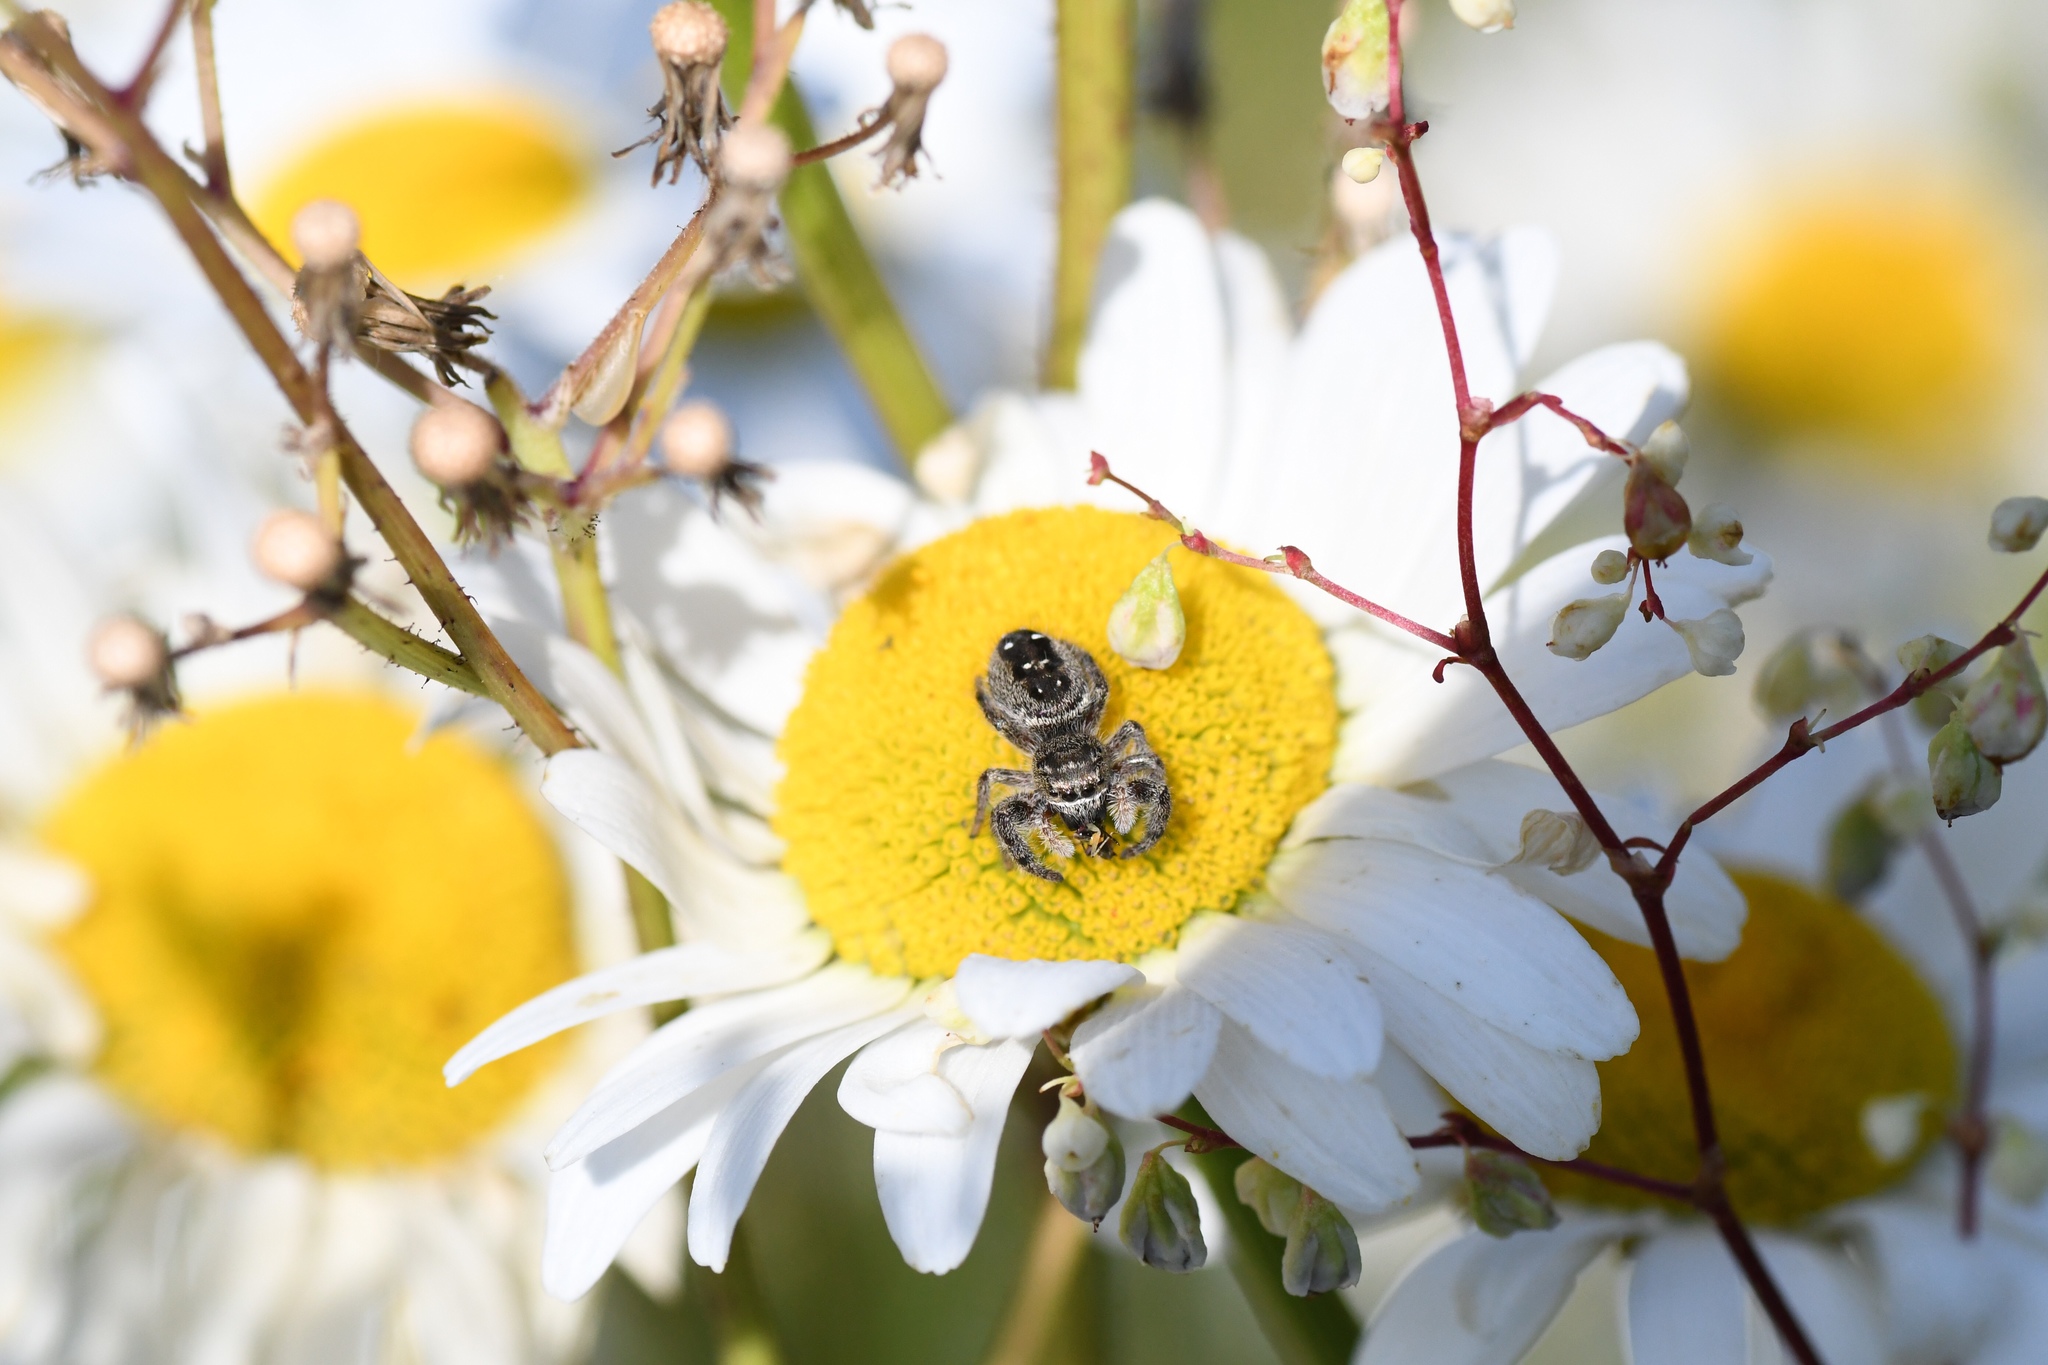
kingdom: Animalia
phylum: Arthropoda
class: Arachnida
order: Araneae
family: Salticidae
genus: Phidippus
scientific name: Phidippus purpuratus
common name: Marbled purple jumping spider
